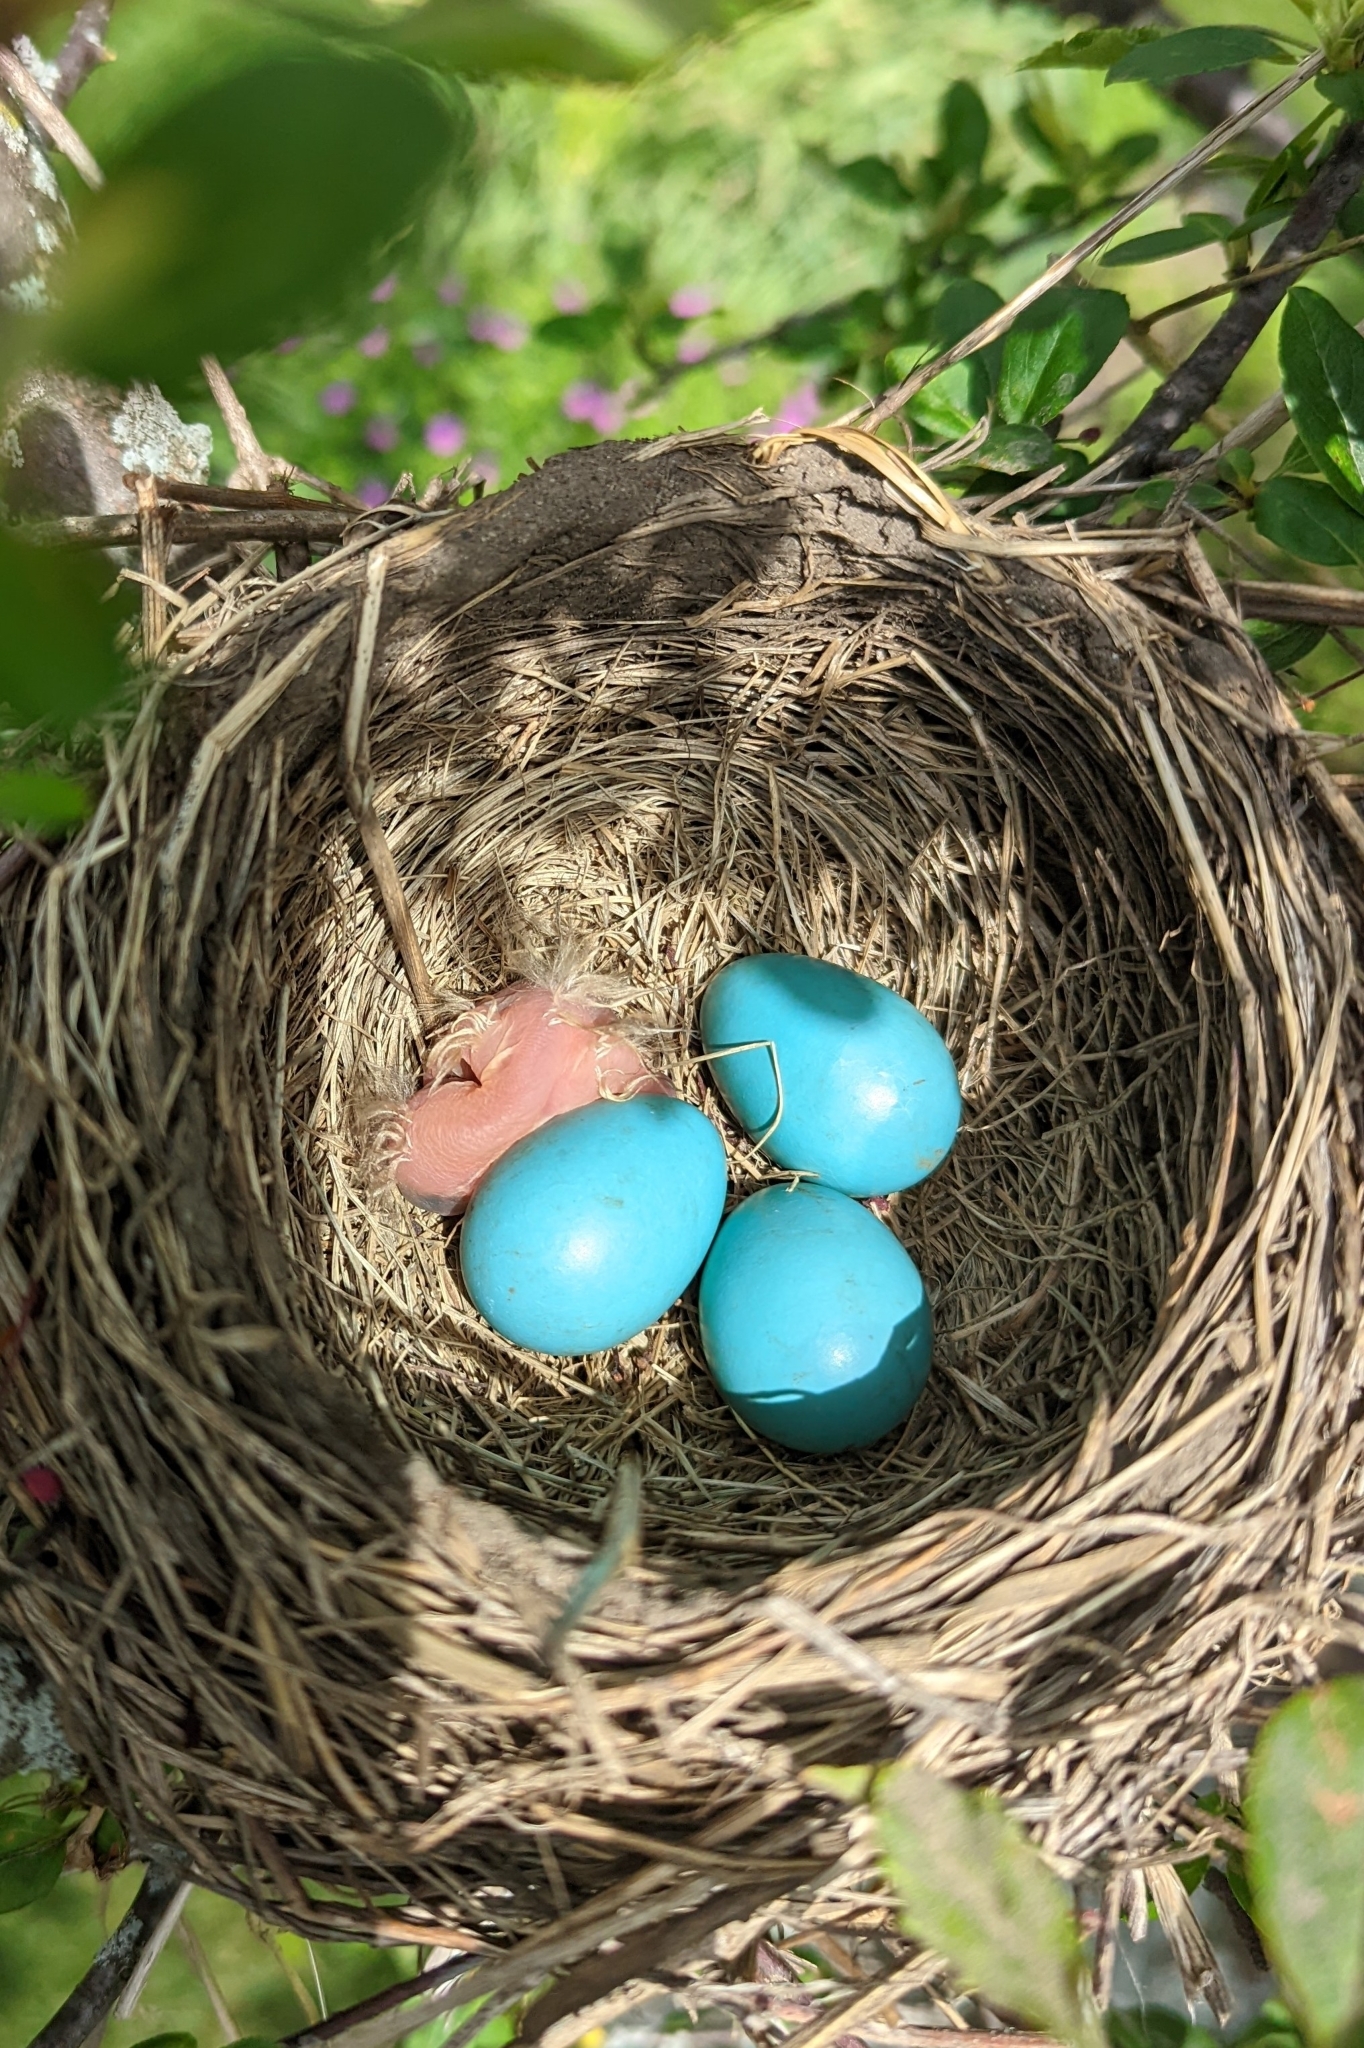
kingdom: Animalia
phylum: Chordata
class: Aves
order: Passeriformes
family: Turdidae
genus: Turdus
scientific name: Turdus migratorius
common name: American robin
